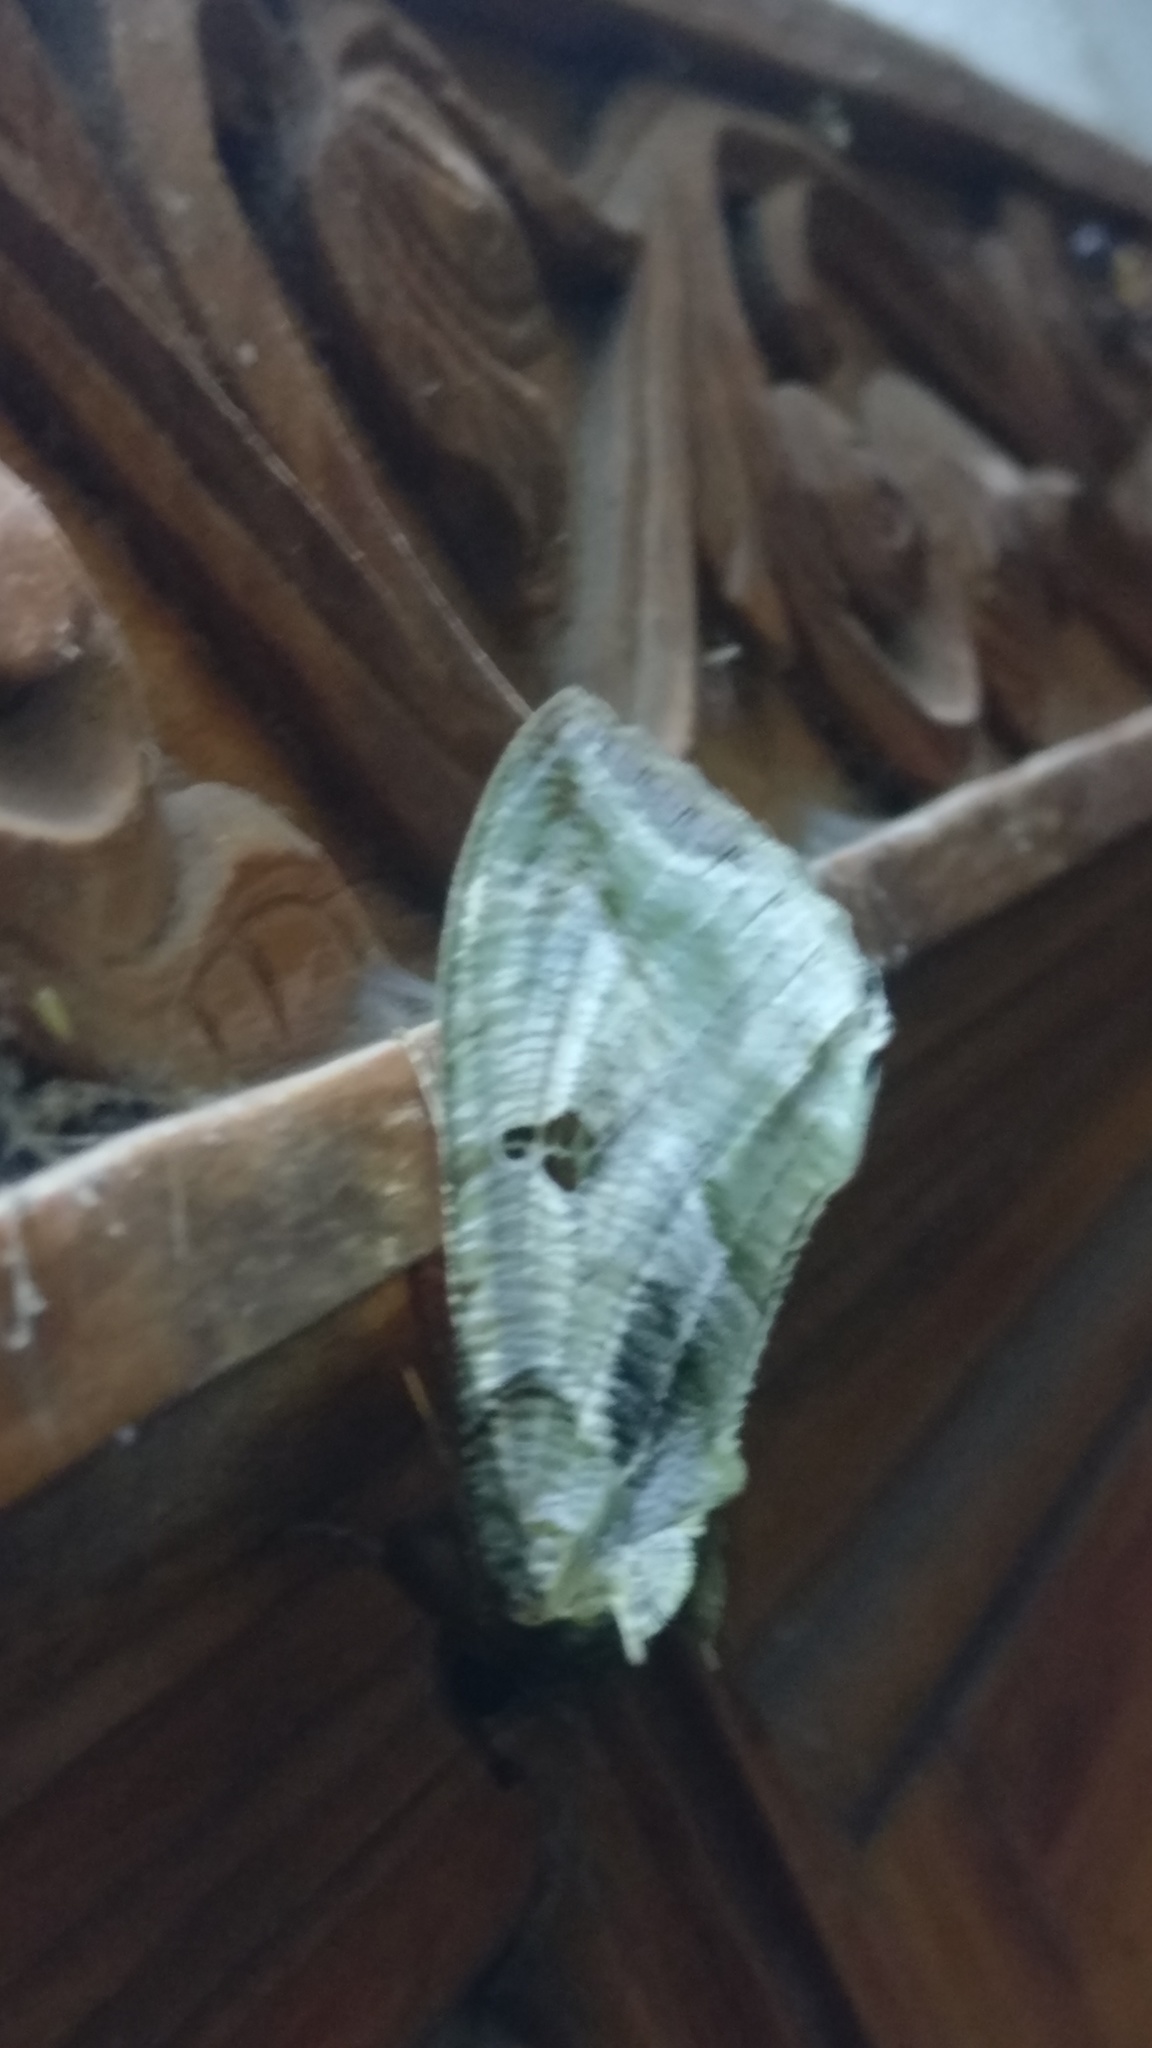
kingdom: Animalia
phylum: Arthropoda
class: Insecta
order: Lepidoptera
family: Erebidae
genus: Eudocima
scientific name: Eudocima materna
